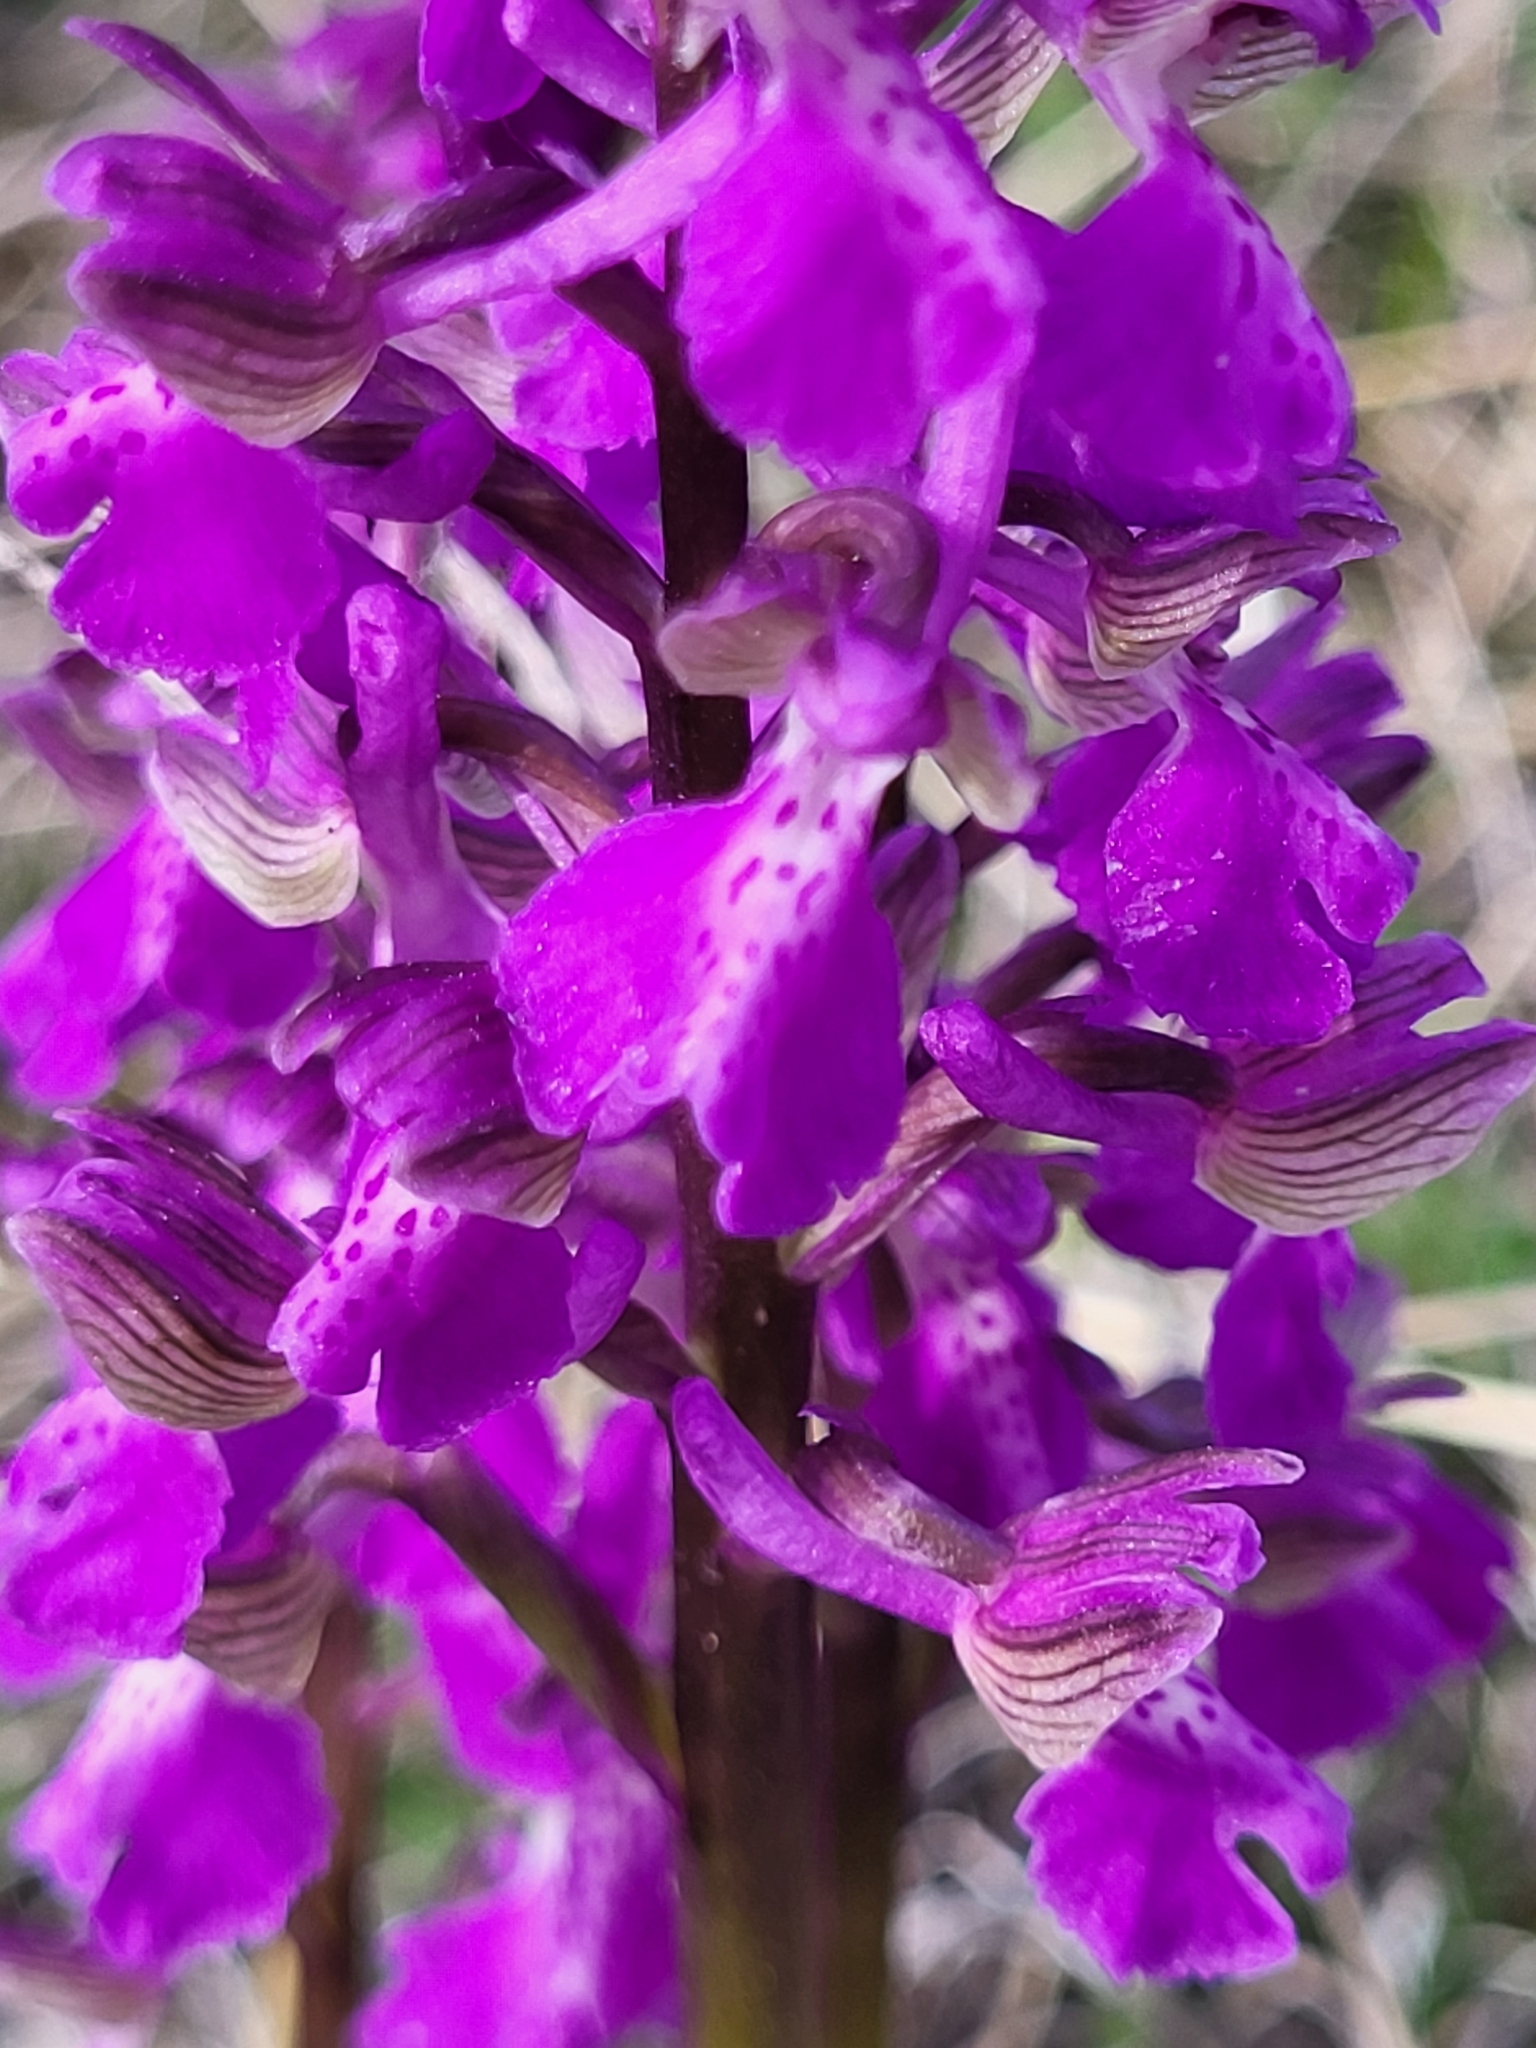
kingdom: Plantae
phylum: Tracheophyta
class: Liliopsida
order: Asparagales
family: Orchidaceae
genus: Anacamptis
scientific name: Anacamptis morio
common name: Green-winged orchid
